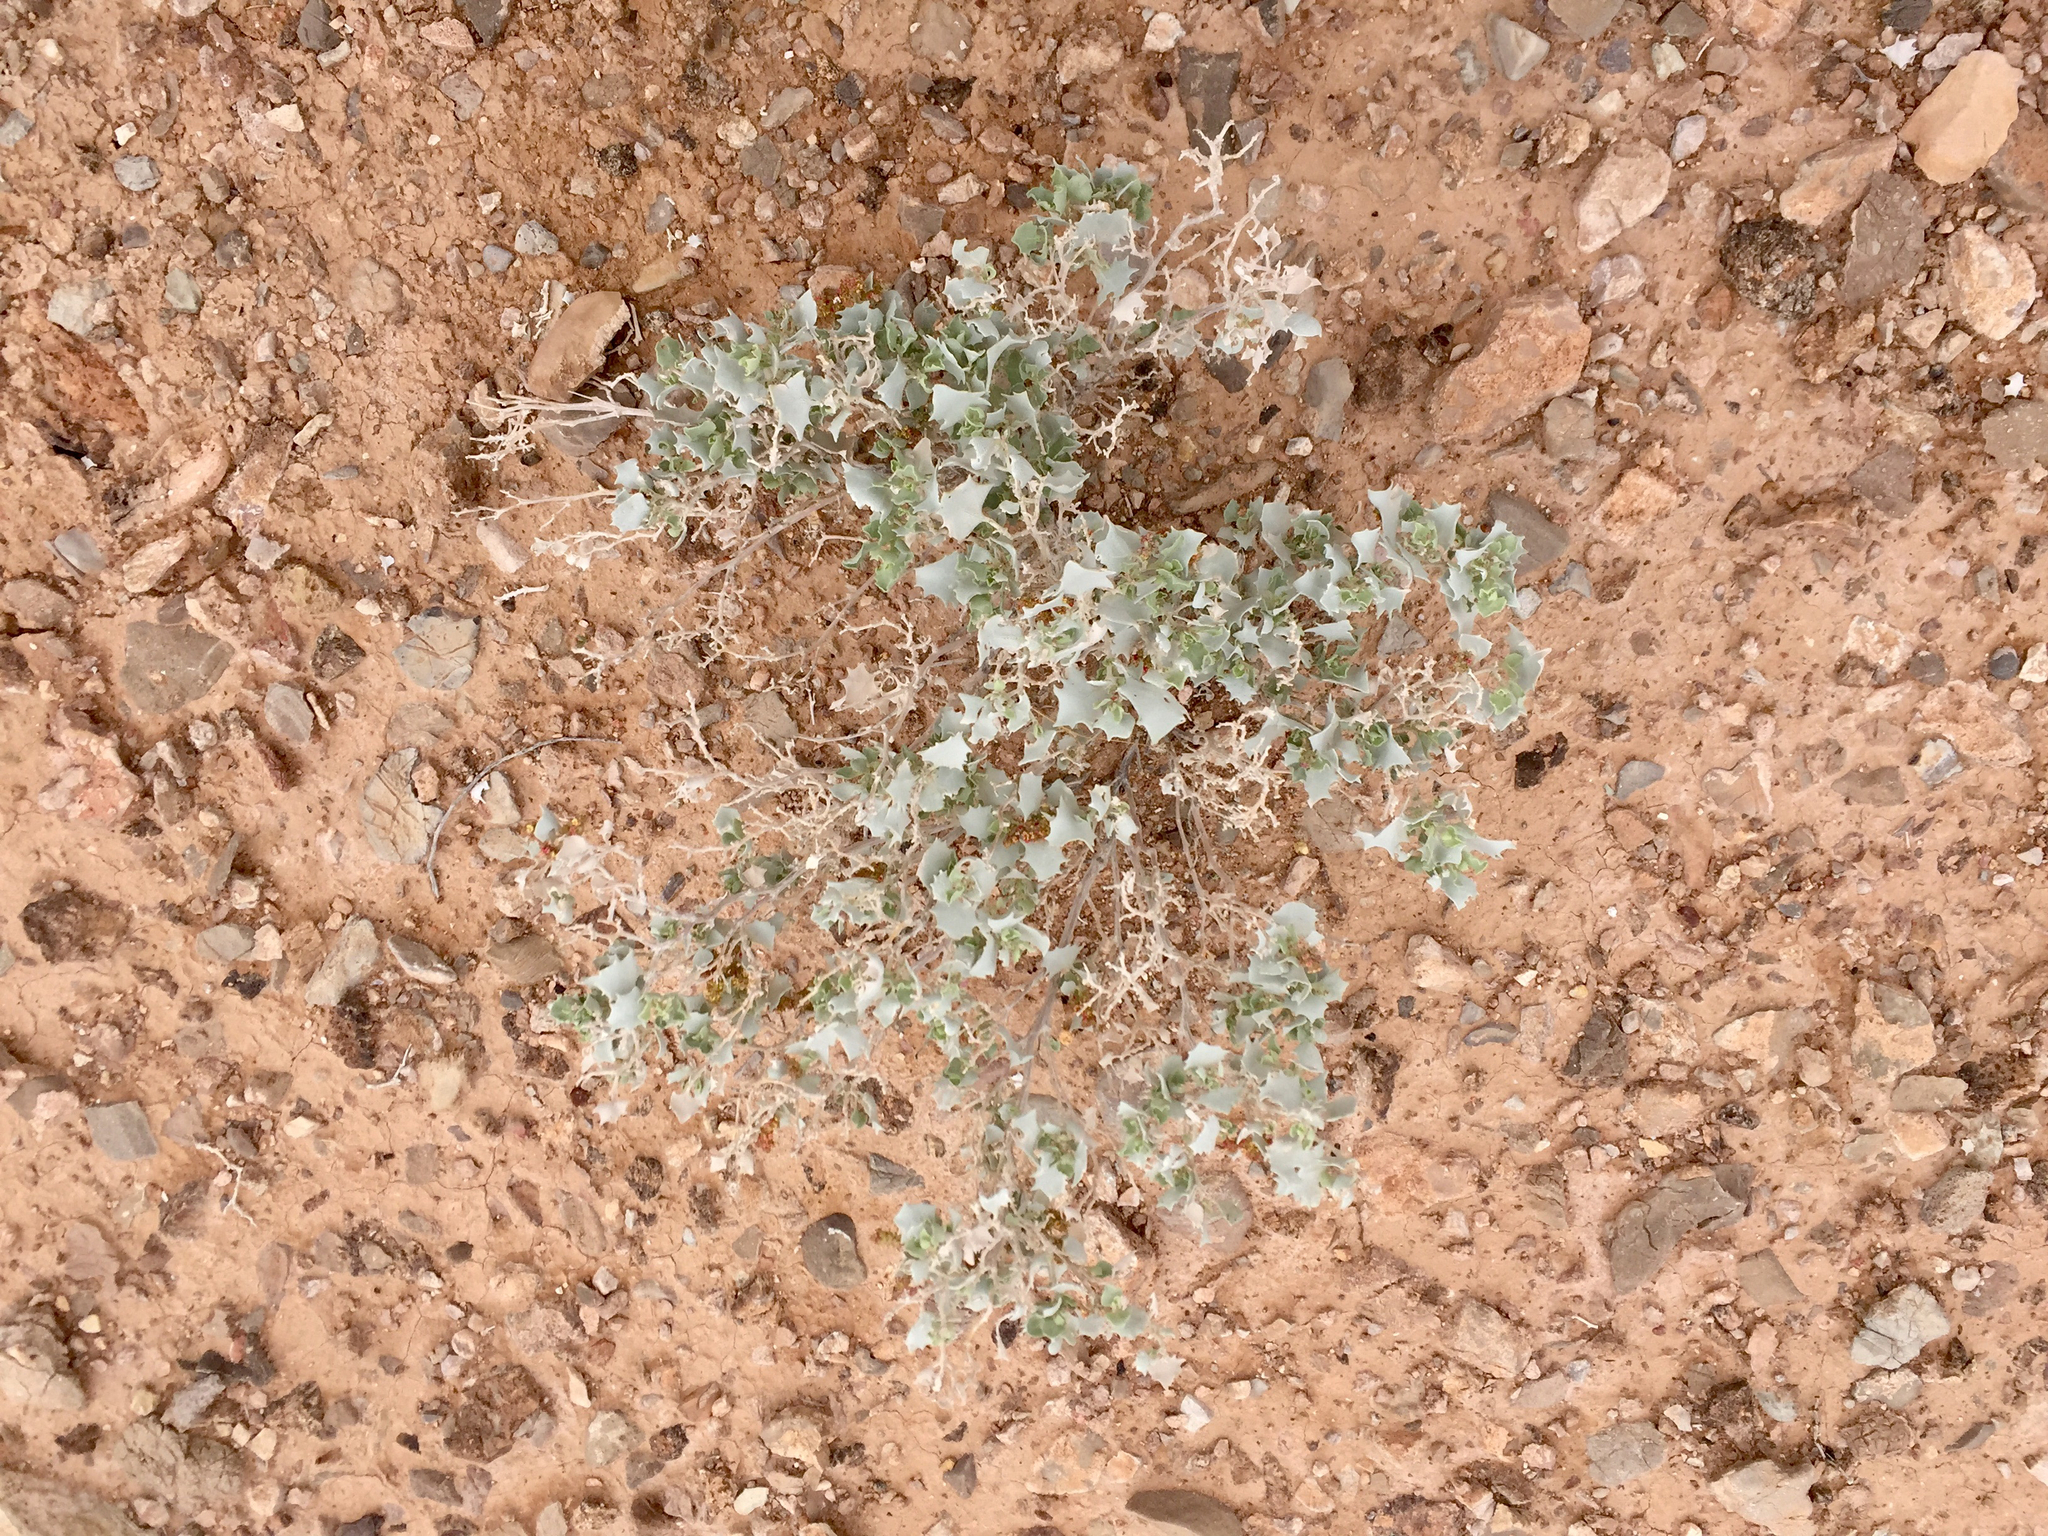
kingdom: Plantae
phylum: Tracheophyta
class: Magnoliopsida
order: Caryophyllales
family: Amaranthaceae
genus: Atriplex
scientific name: Atriplex hymenelytra
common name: Desert-holly
